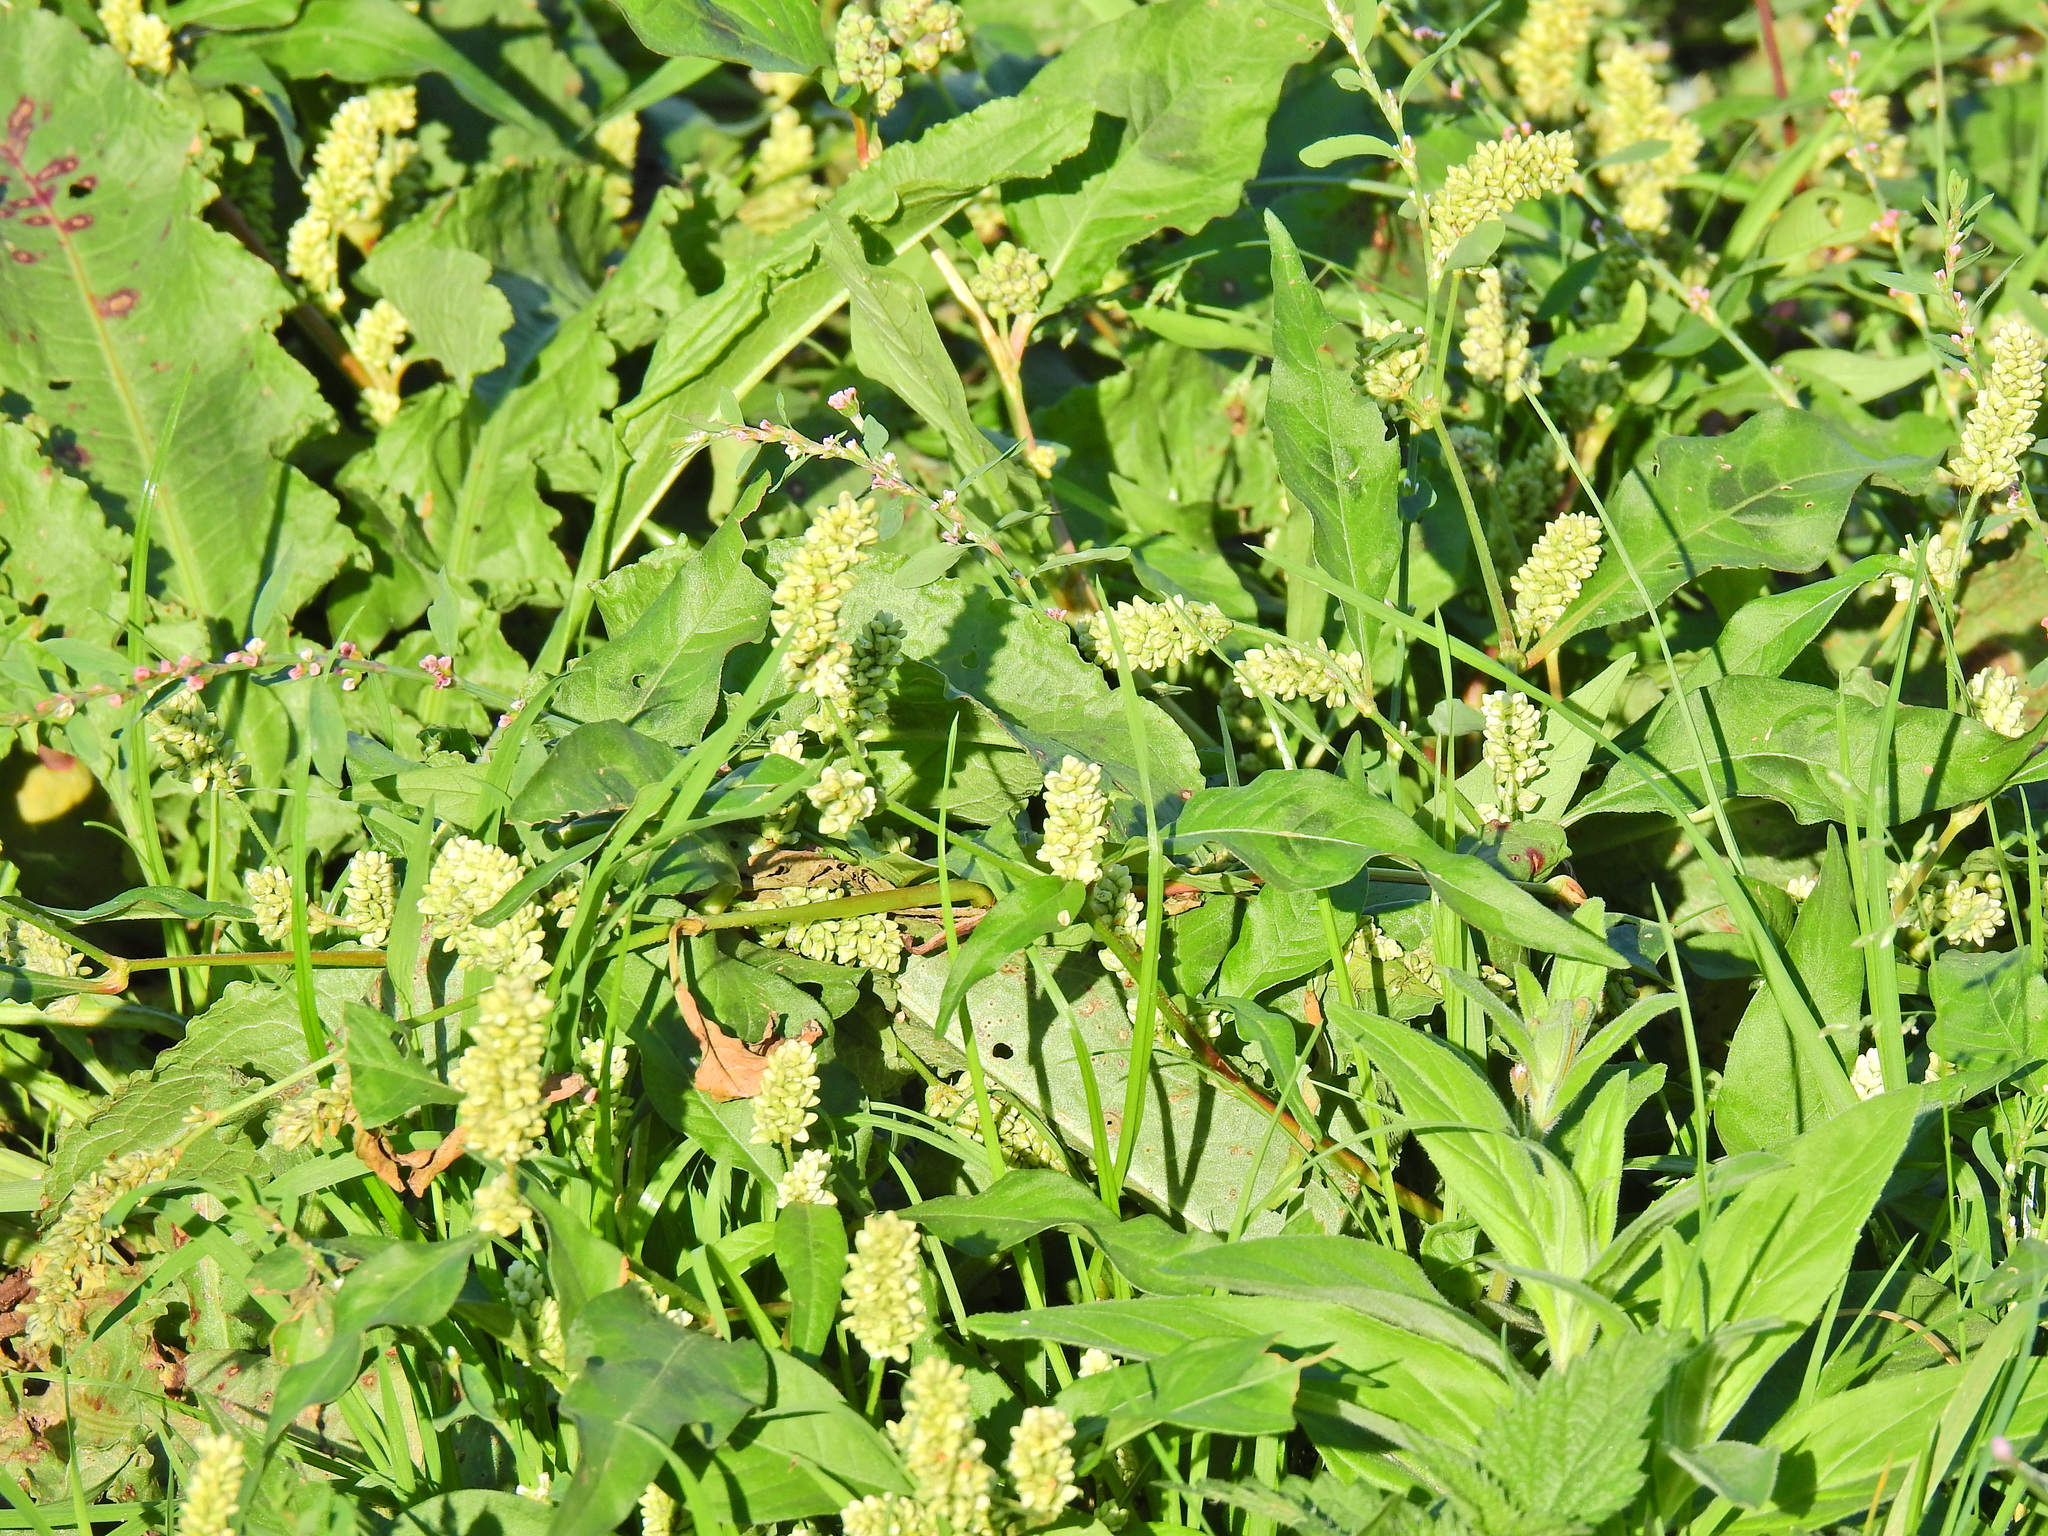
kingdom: Plantae
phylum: Tracheophyta
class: Magnoliopsida
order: Caryophyllales
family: Polygonaceae
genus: Persicaria
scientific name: Persicaria lapathifolia
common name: Curlytop knotweed
